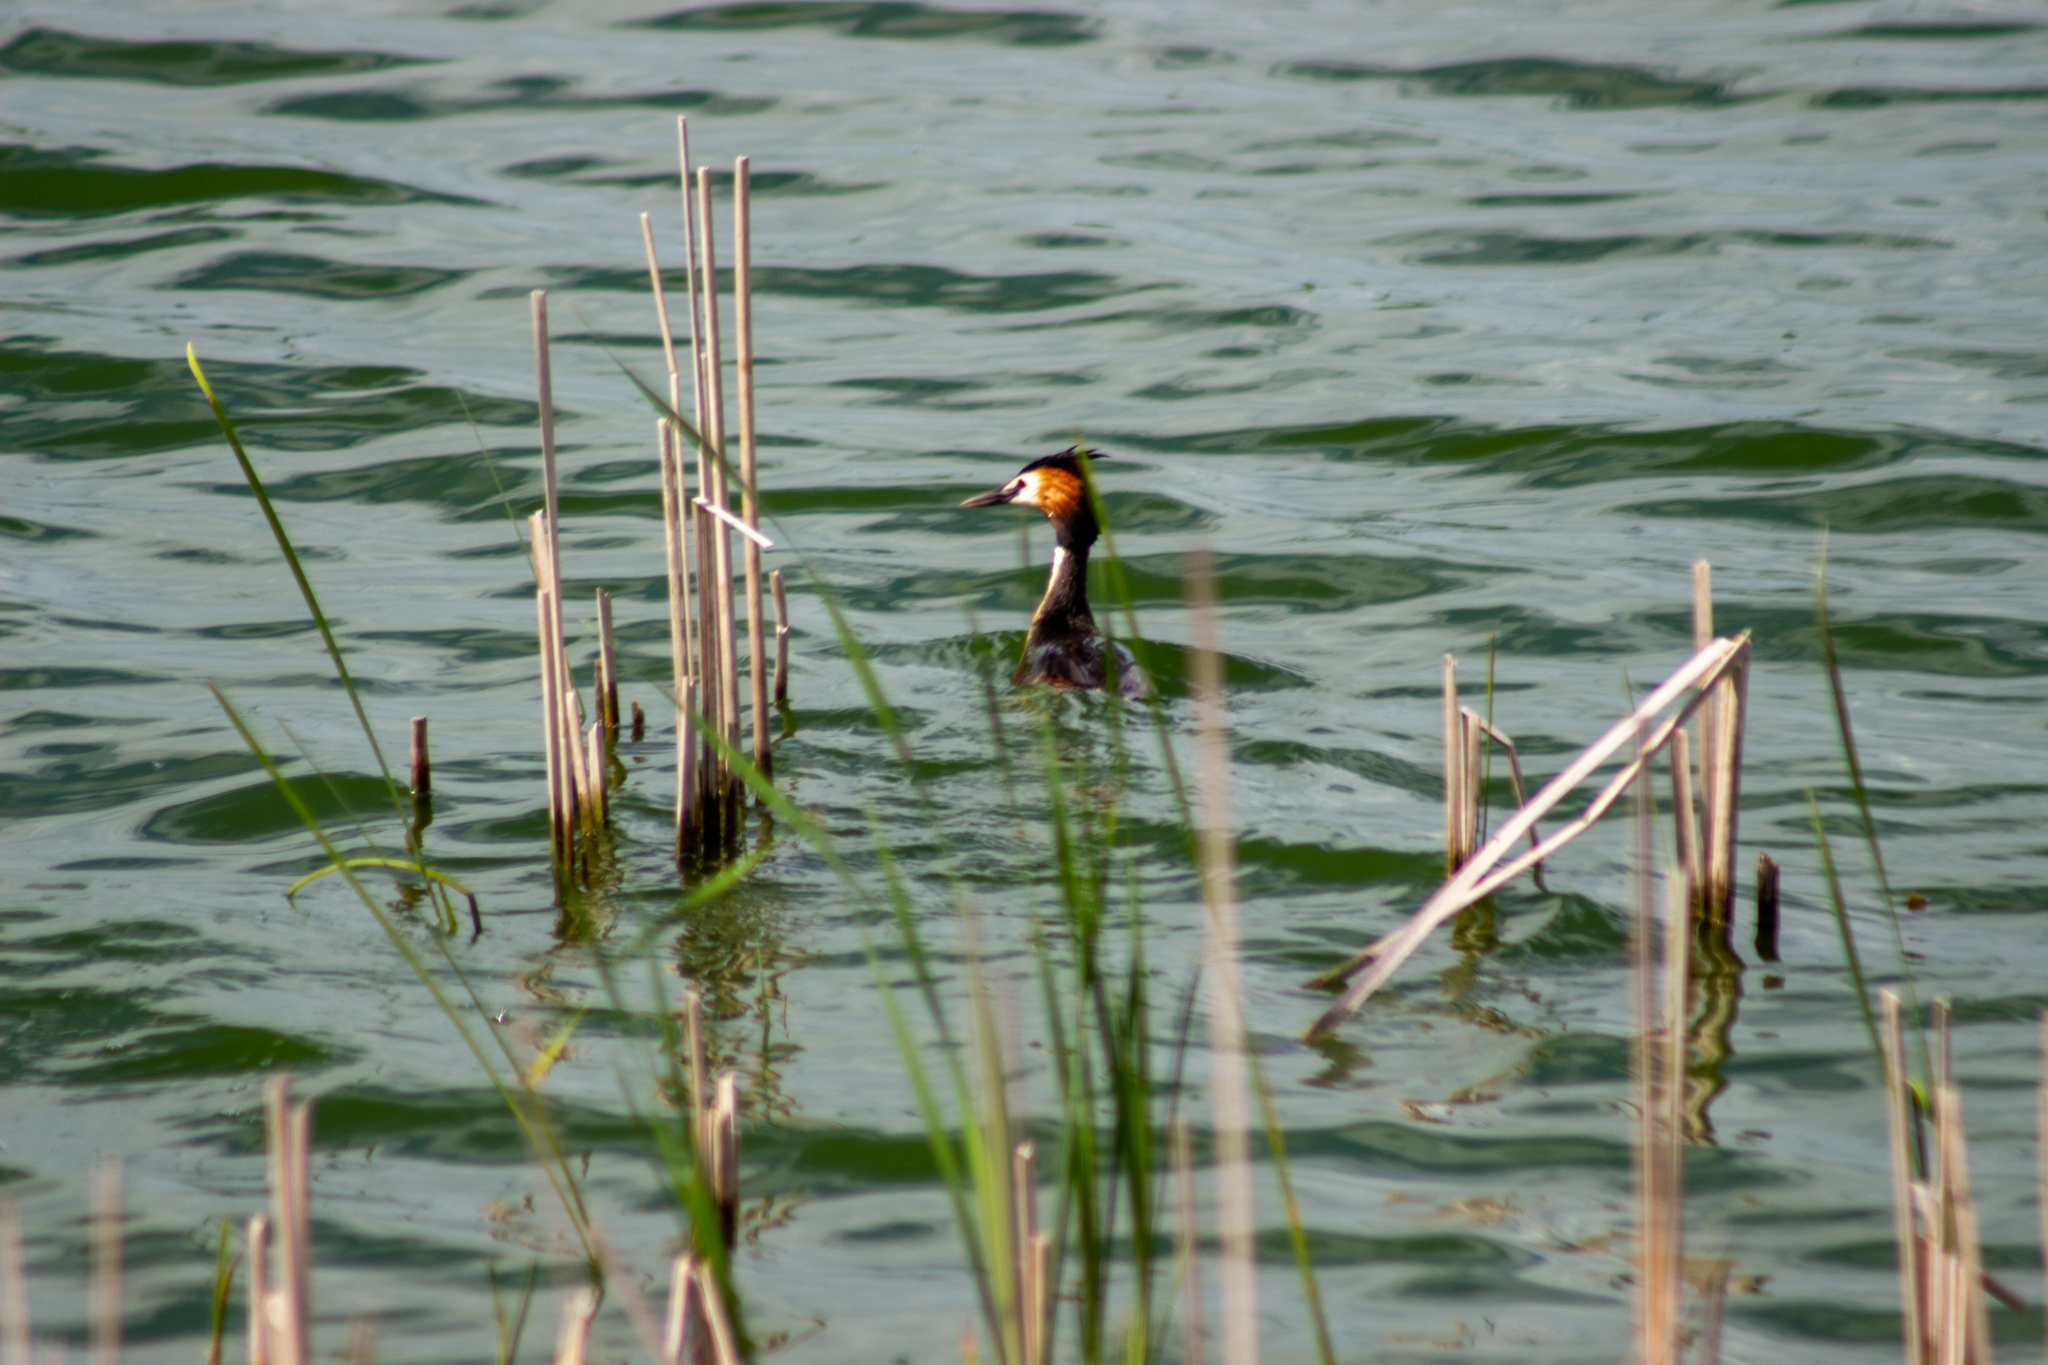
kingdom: Animalia
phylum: Chordata
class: Aves
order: Podicipediformes
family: Podicipedidae
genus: Podiceps
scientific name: Podiceps cristatus
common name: Great crested grebe
